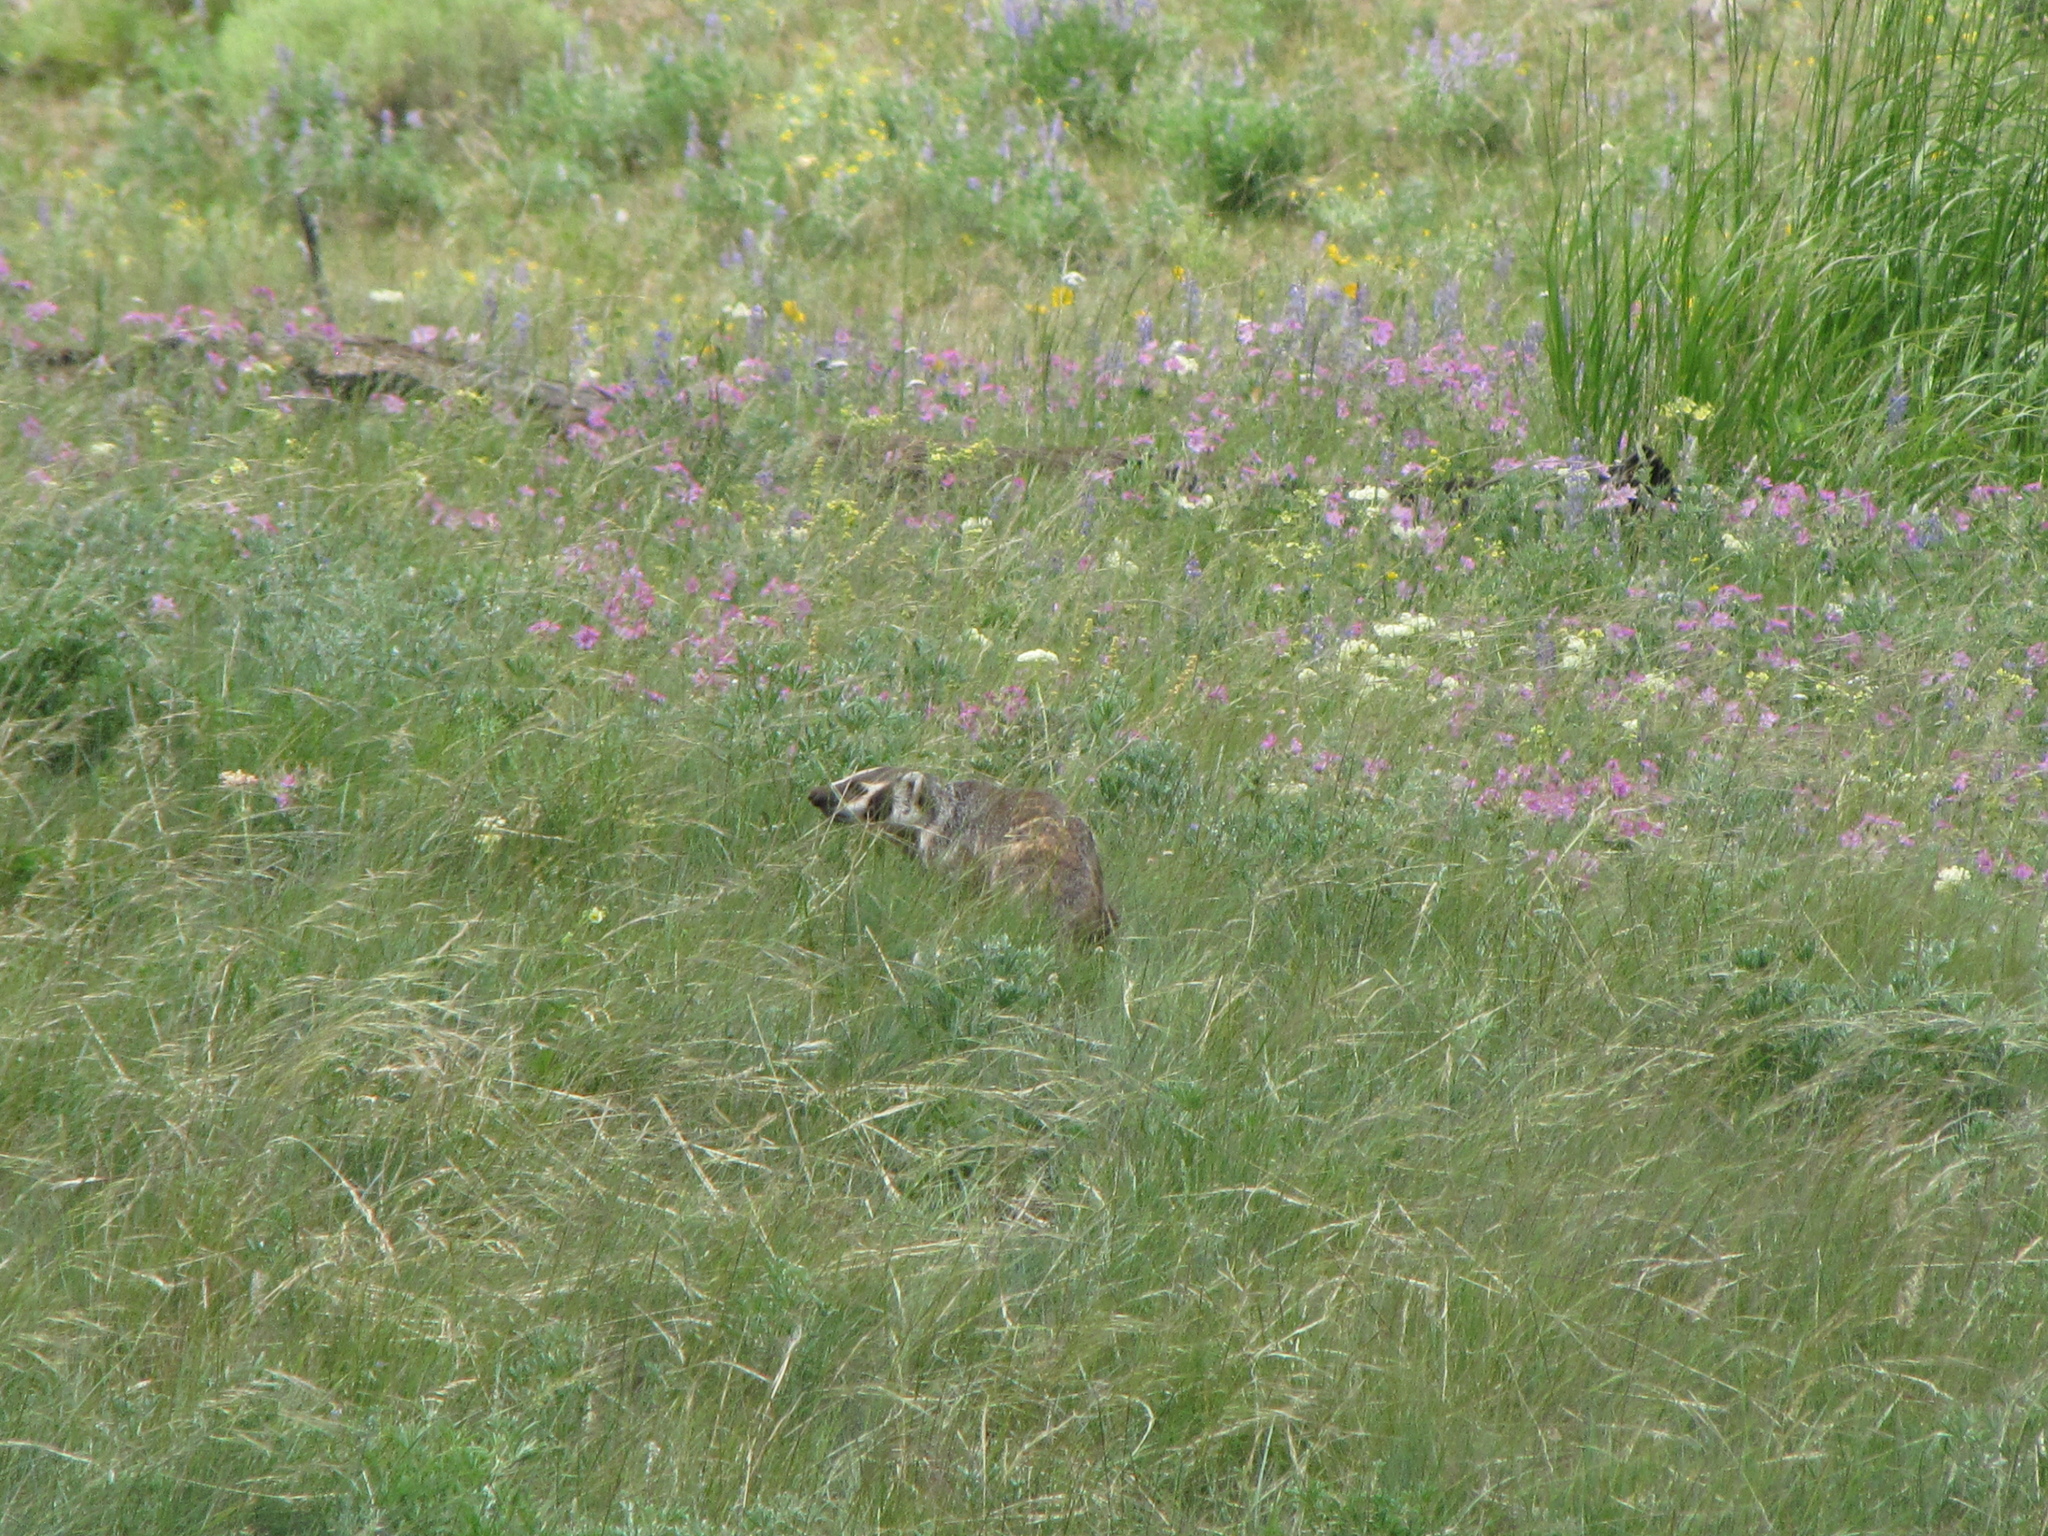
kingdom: Animalia
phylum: Chordata
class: Mammalia
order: Carnivora
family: Mustelidae
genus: Taxidea
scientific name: Taxidea taxus
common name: American badger
